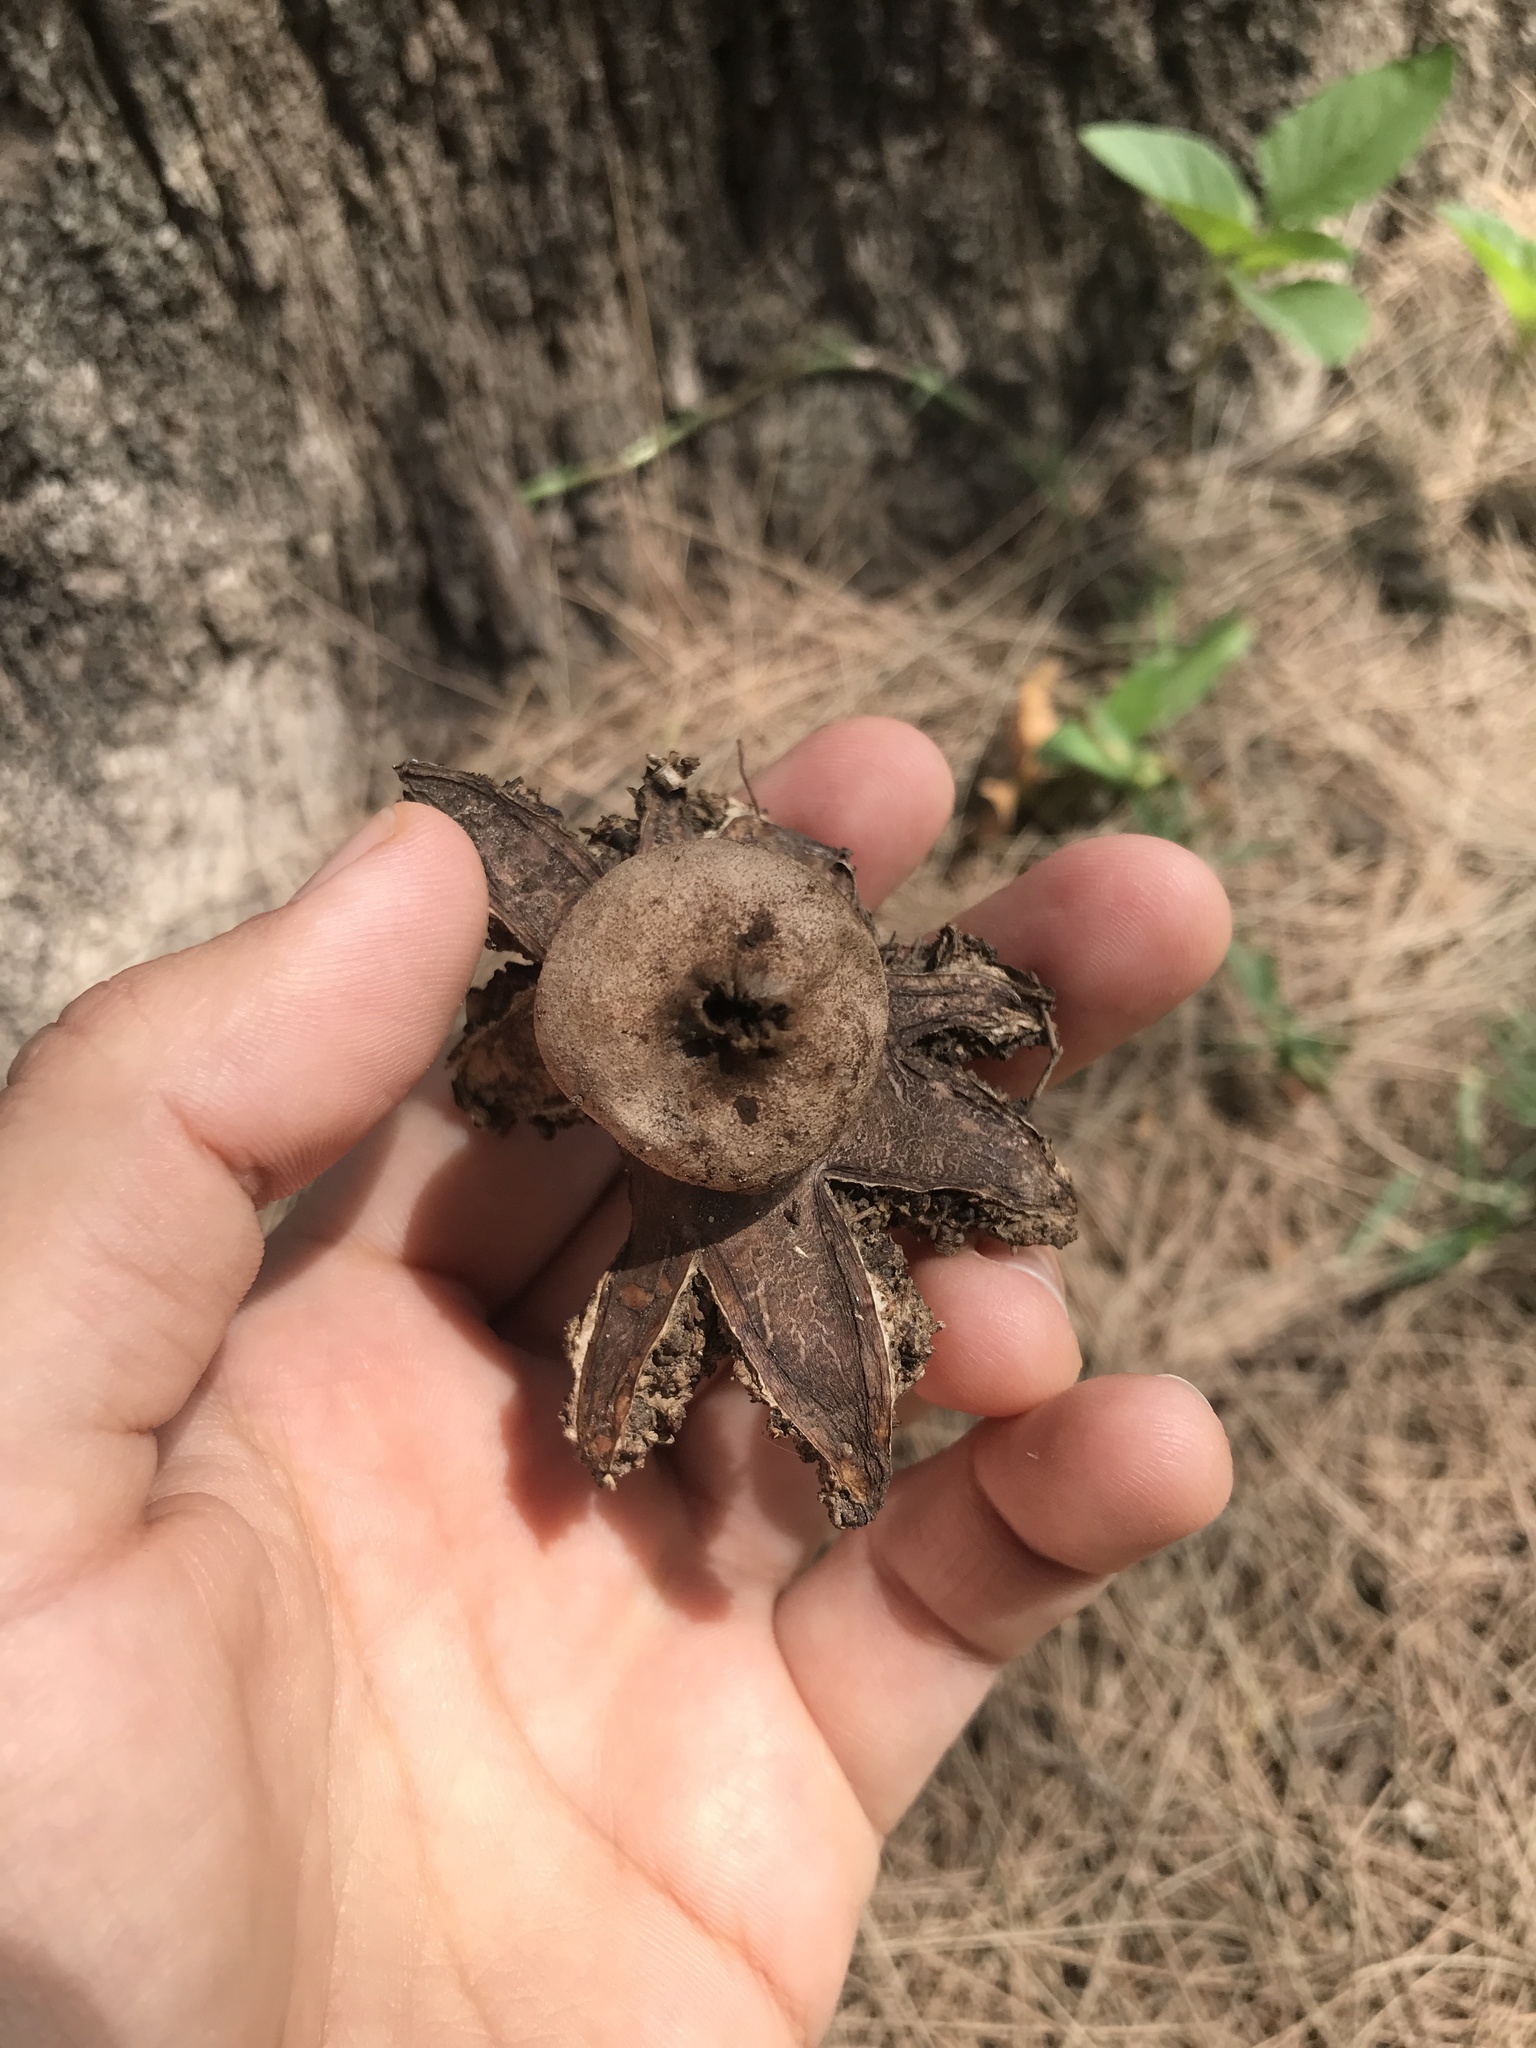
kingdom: Fungi
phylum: Basidiomycota
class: Agaricomycetes
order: Geastrales
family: Geastraceae
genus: Geastrum
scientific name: Geastrum hieronymi
